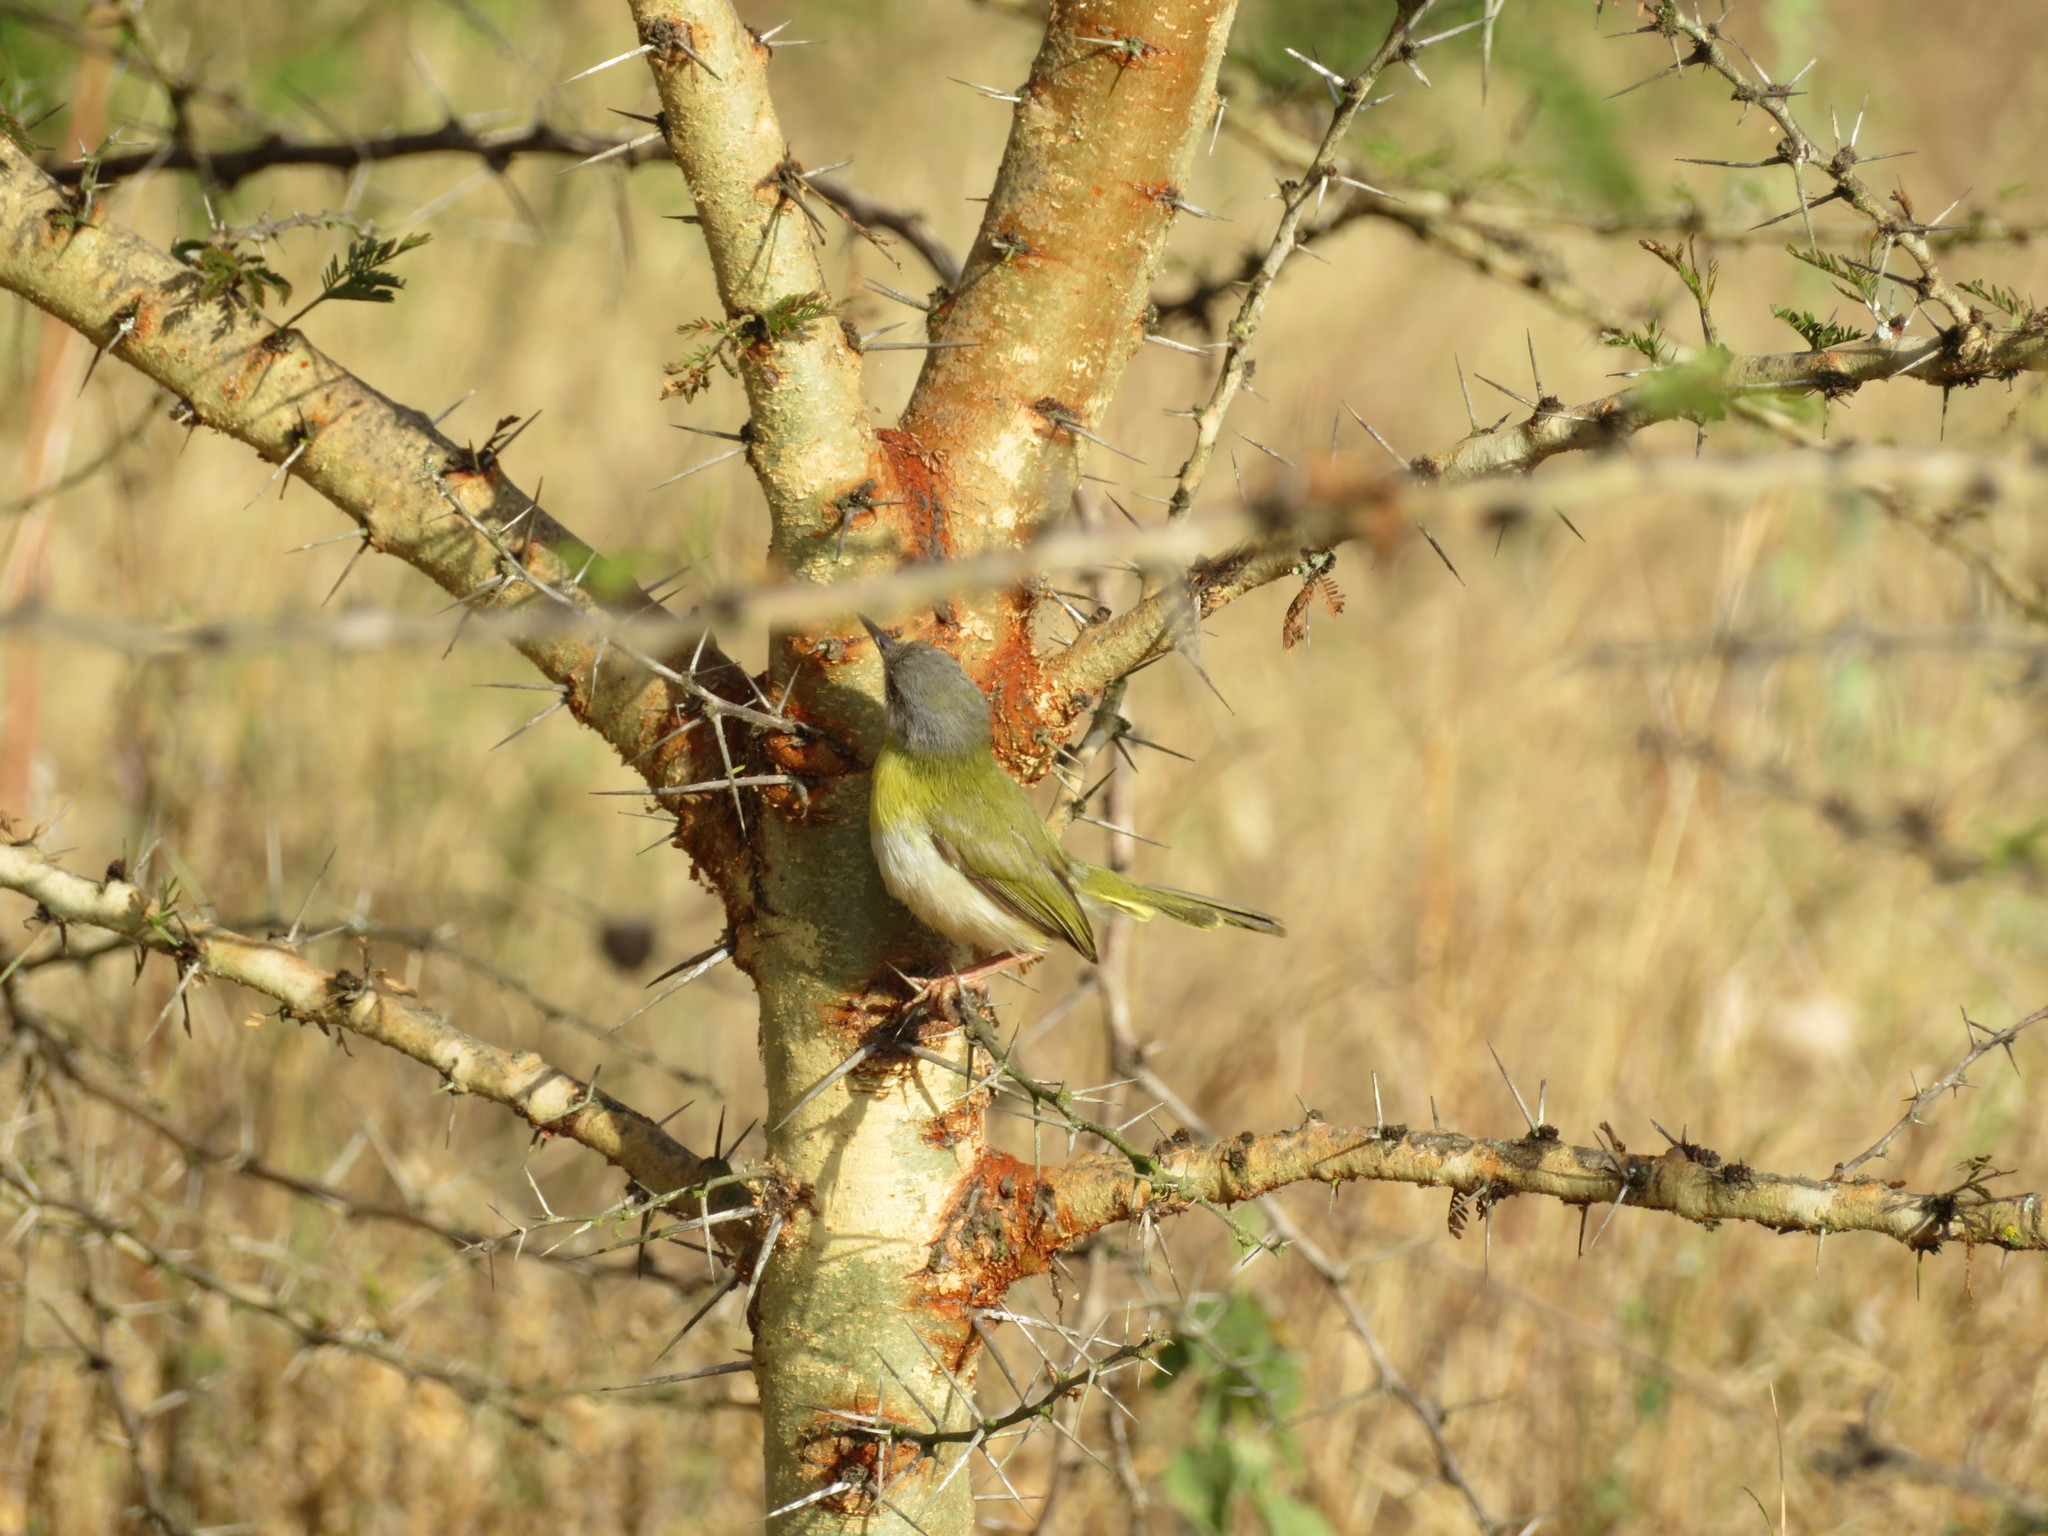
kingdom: Animalia
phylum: Chordata
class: Aves
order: Passeriformes
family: Cisticolidae
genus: Apalis
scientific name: Apalis flavida
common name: Yellow-breasted apalis
